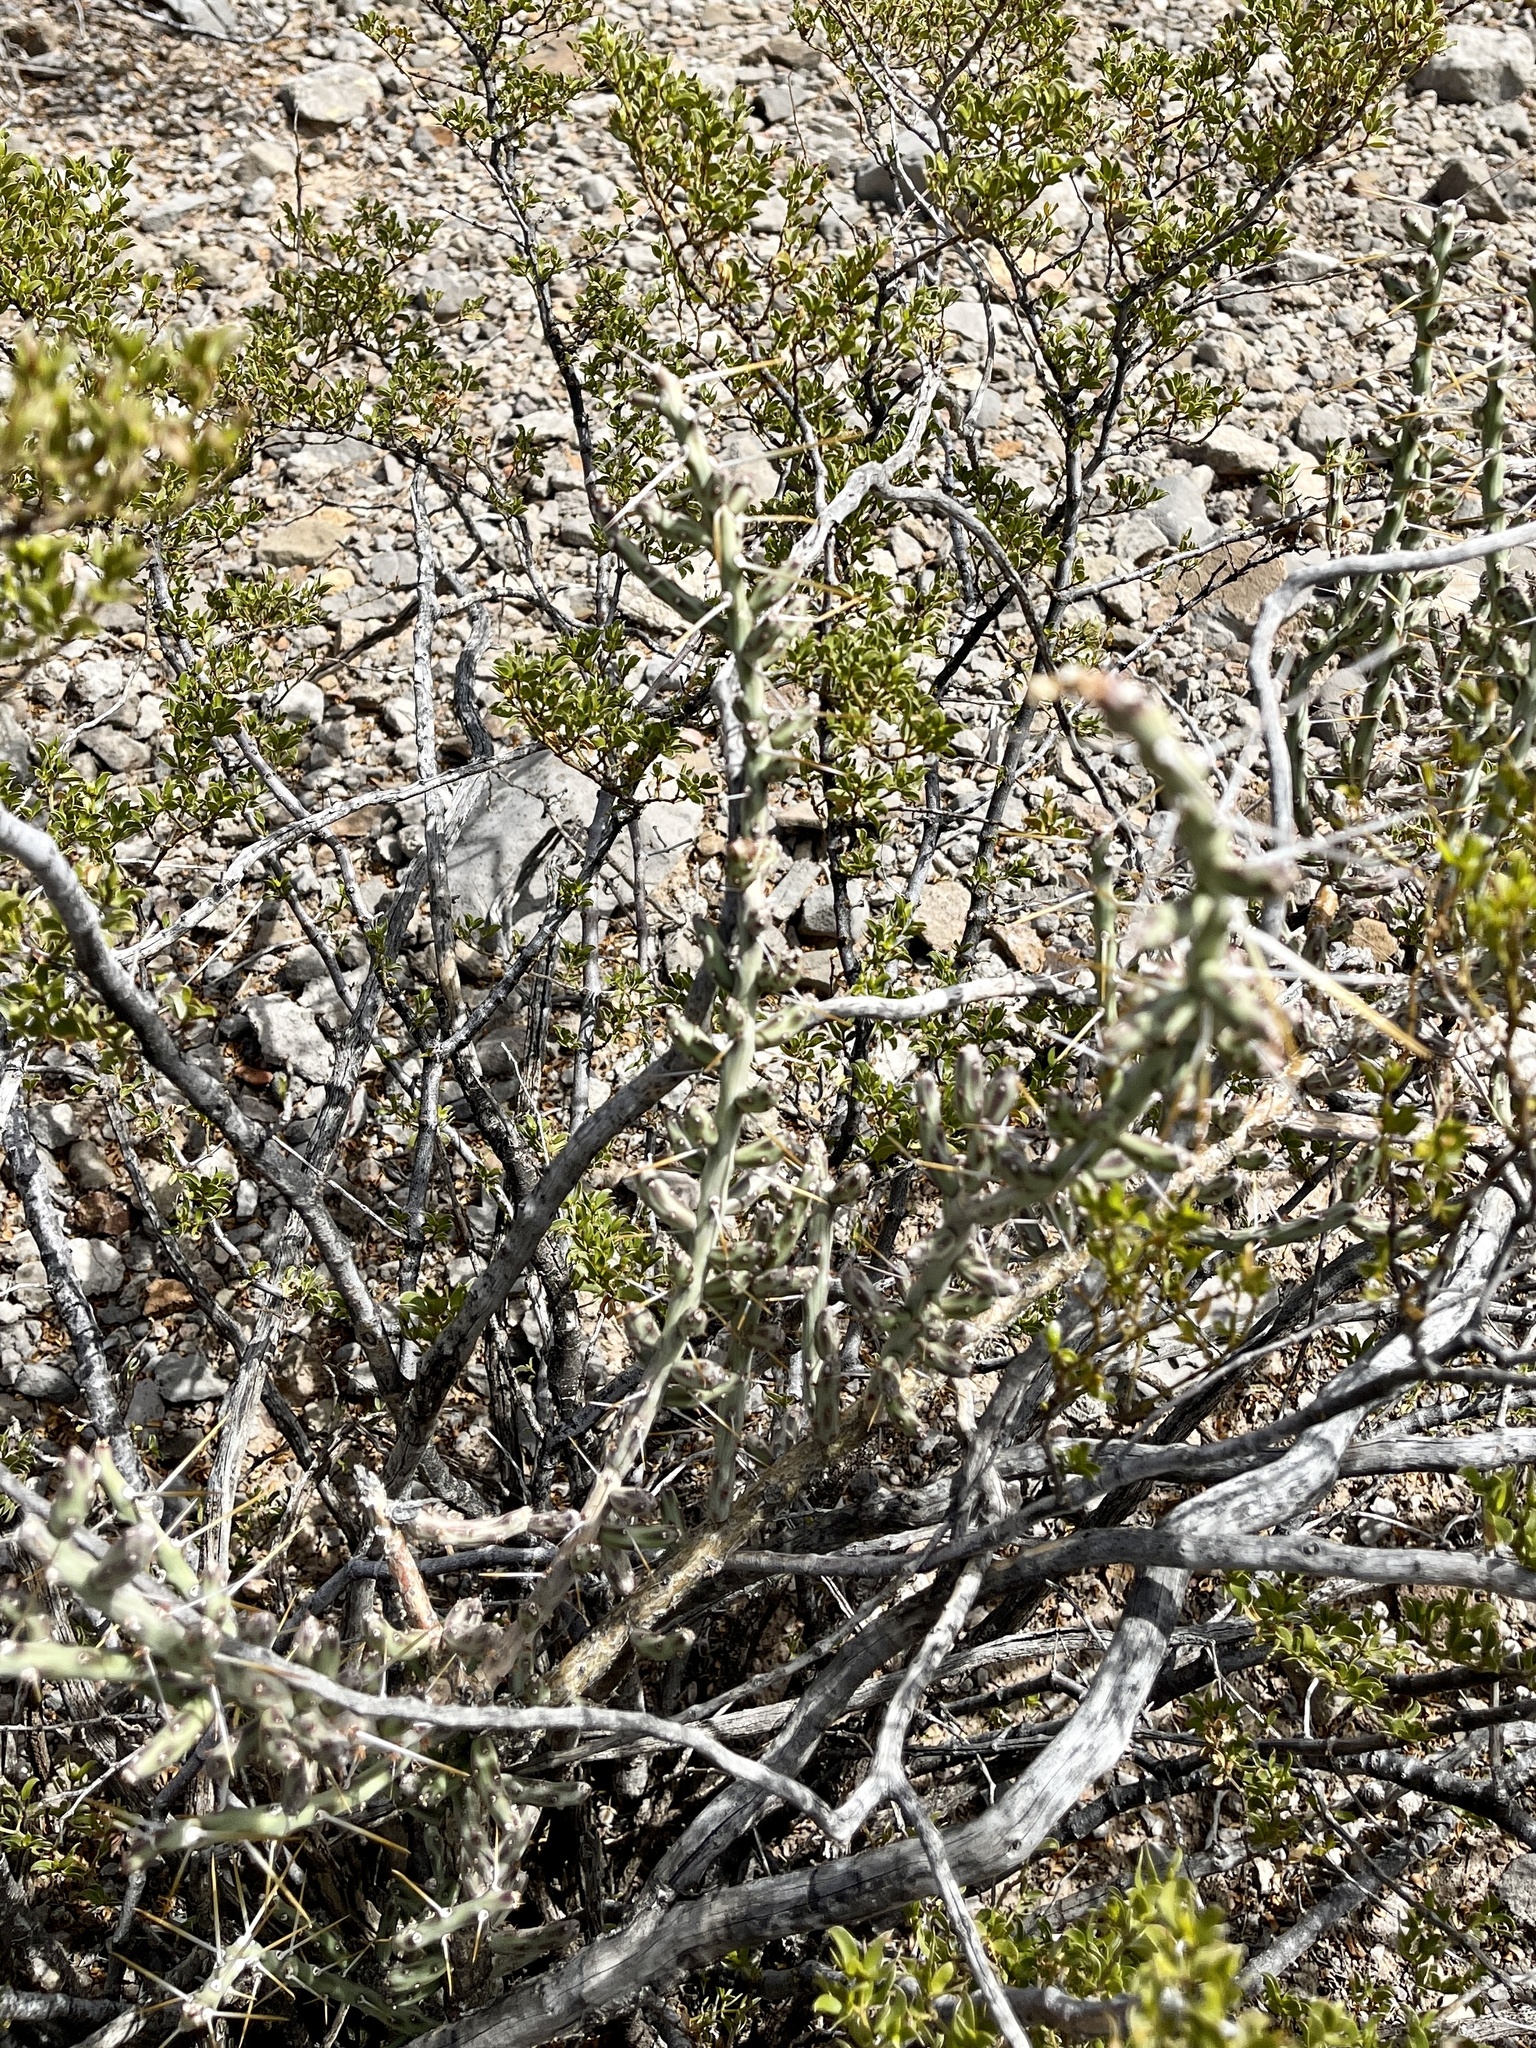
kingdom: Plantae
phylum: Tracheophyta
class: Magnoliopsida
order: Caryophyllales
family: Cactaceae
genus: Cylindropuntia
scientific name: Cylindropuntia leptocaulis
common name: Christmas cactus
